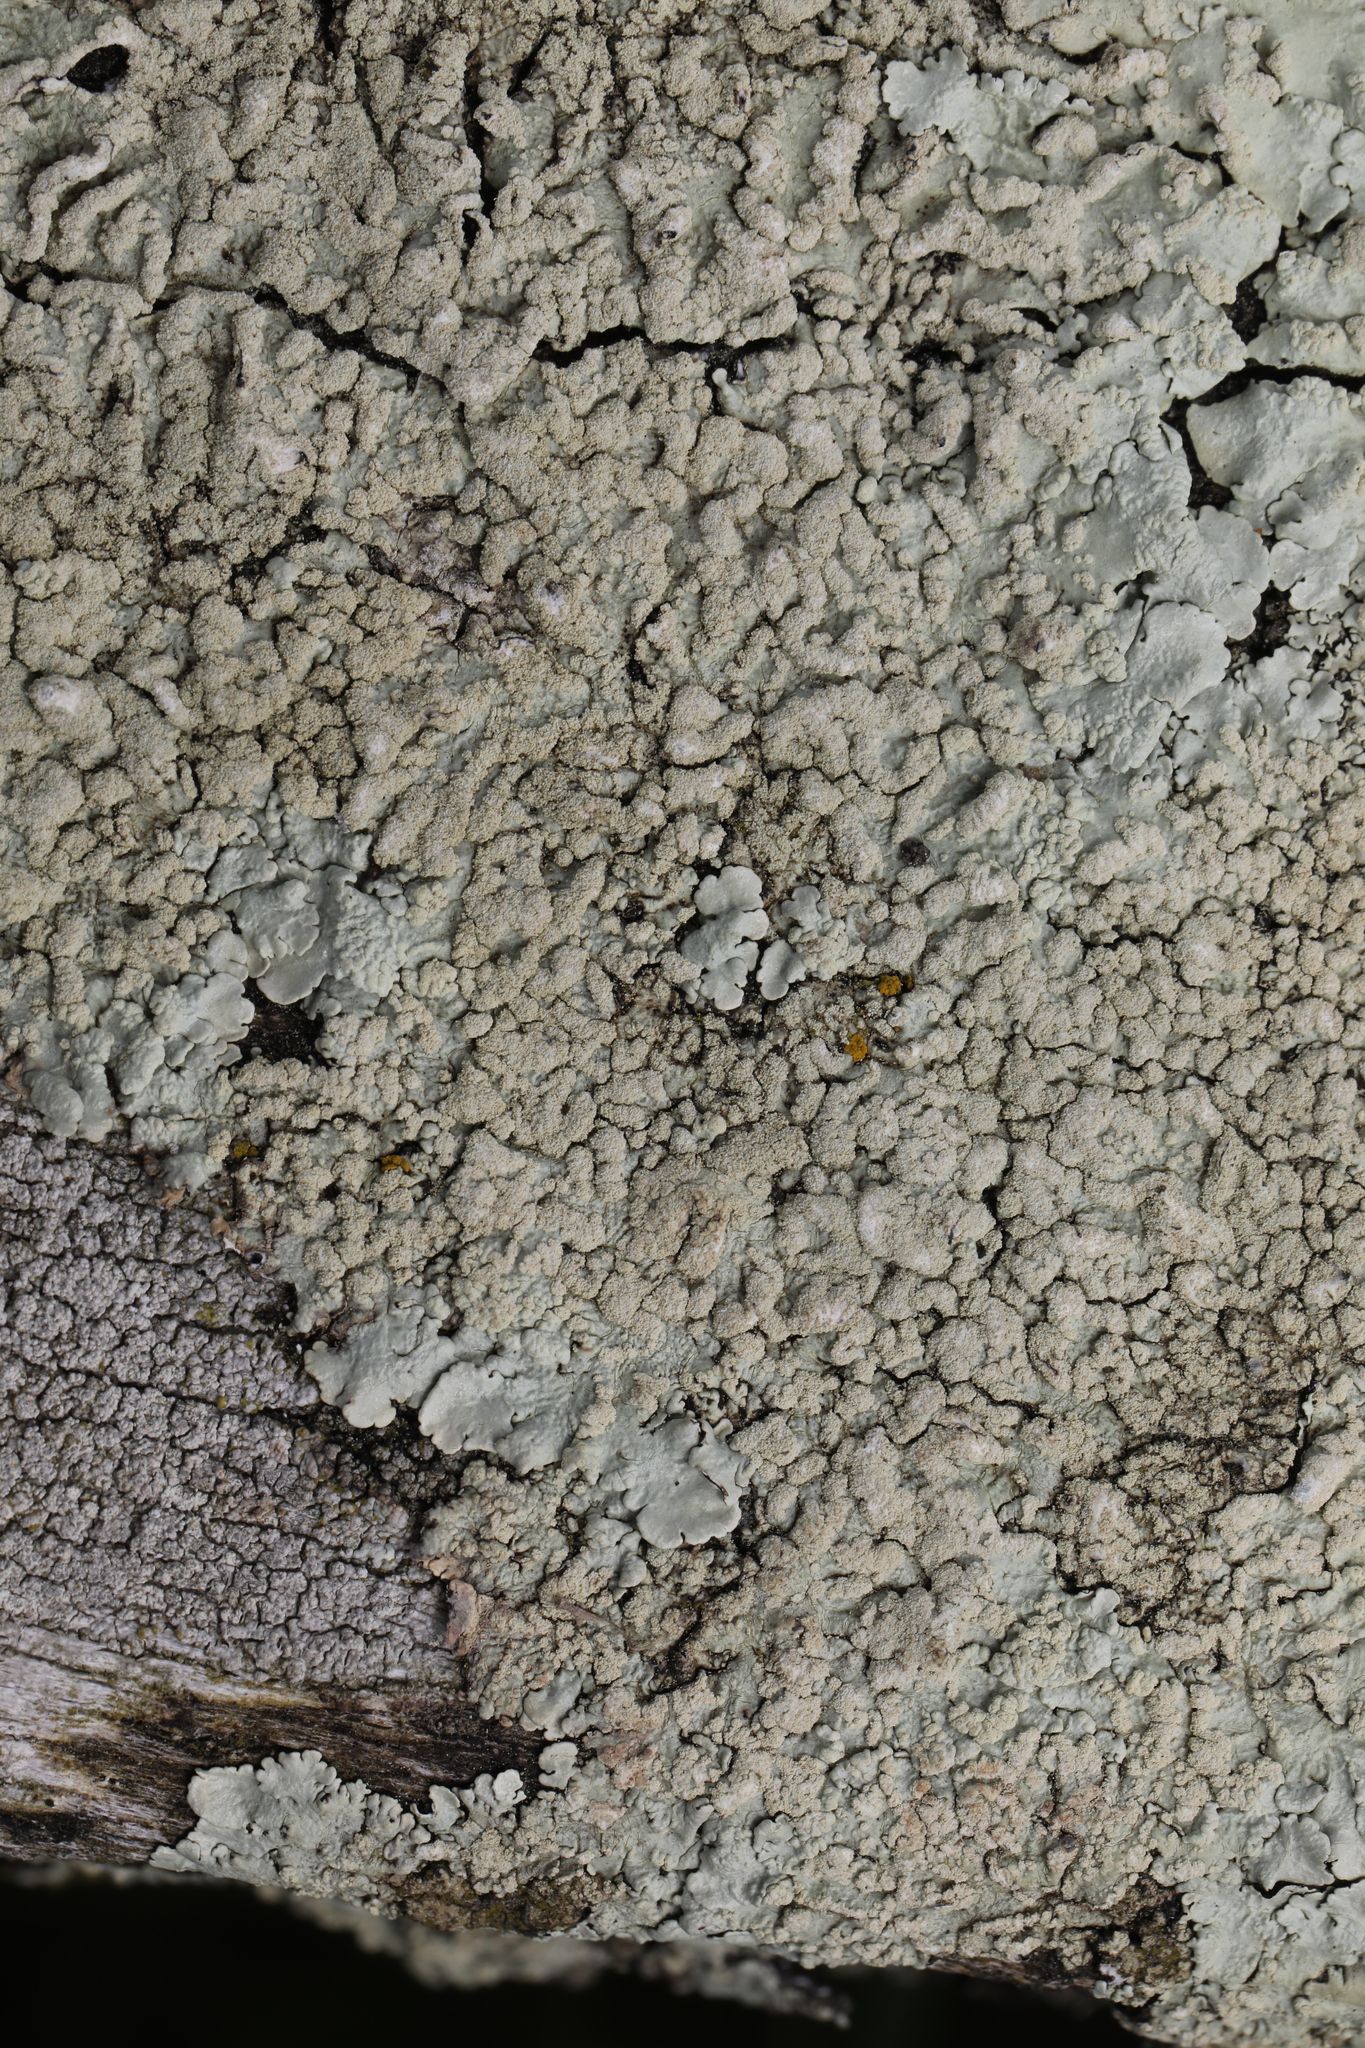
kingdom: Fungi
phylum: Ascomycota
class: Lecanoromycetes
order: Lecanorales
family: Parmeliaceae
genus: Flavoparmelia
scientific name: Flavoparmelia soredians
